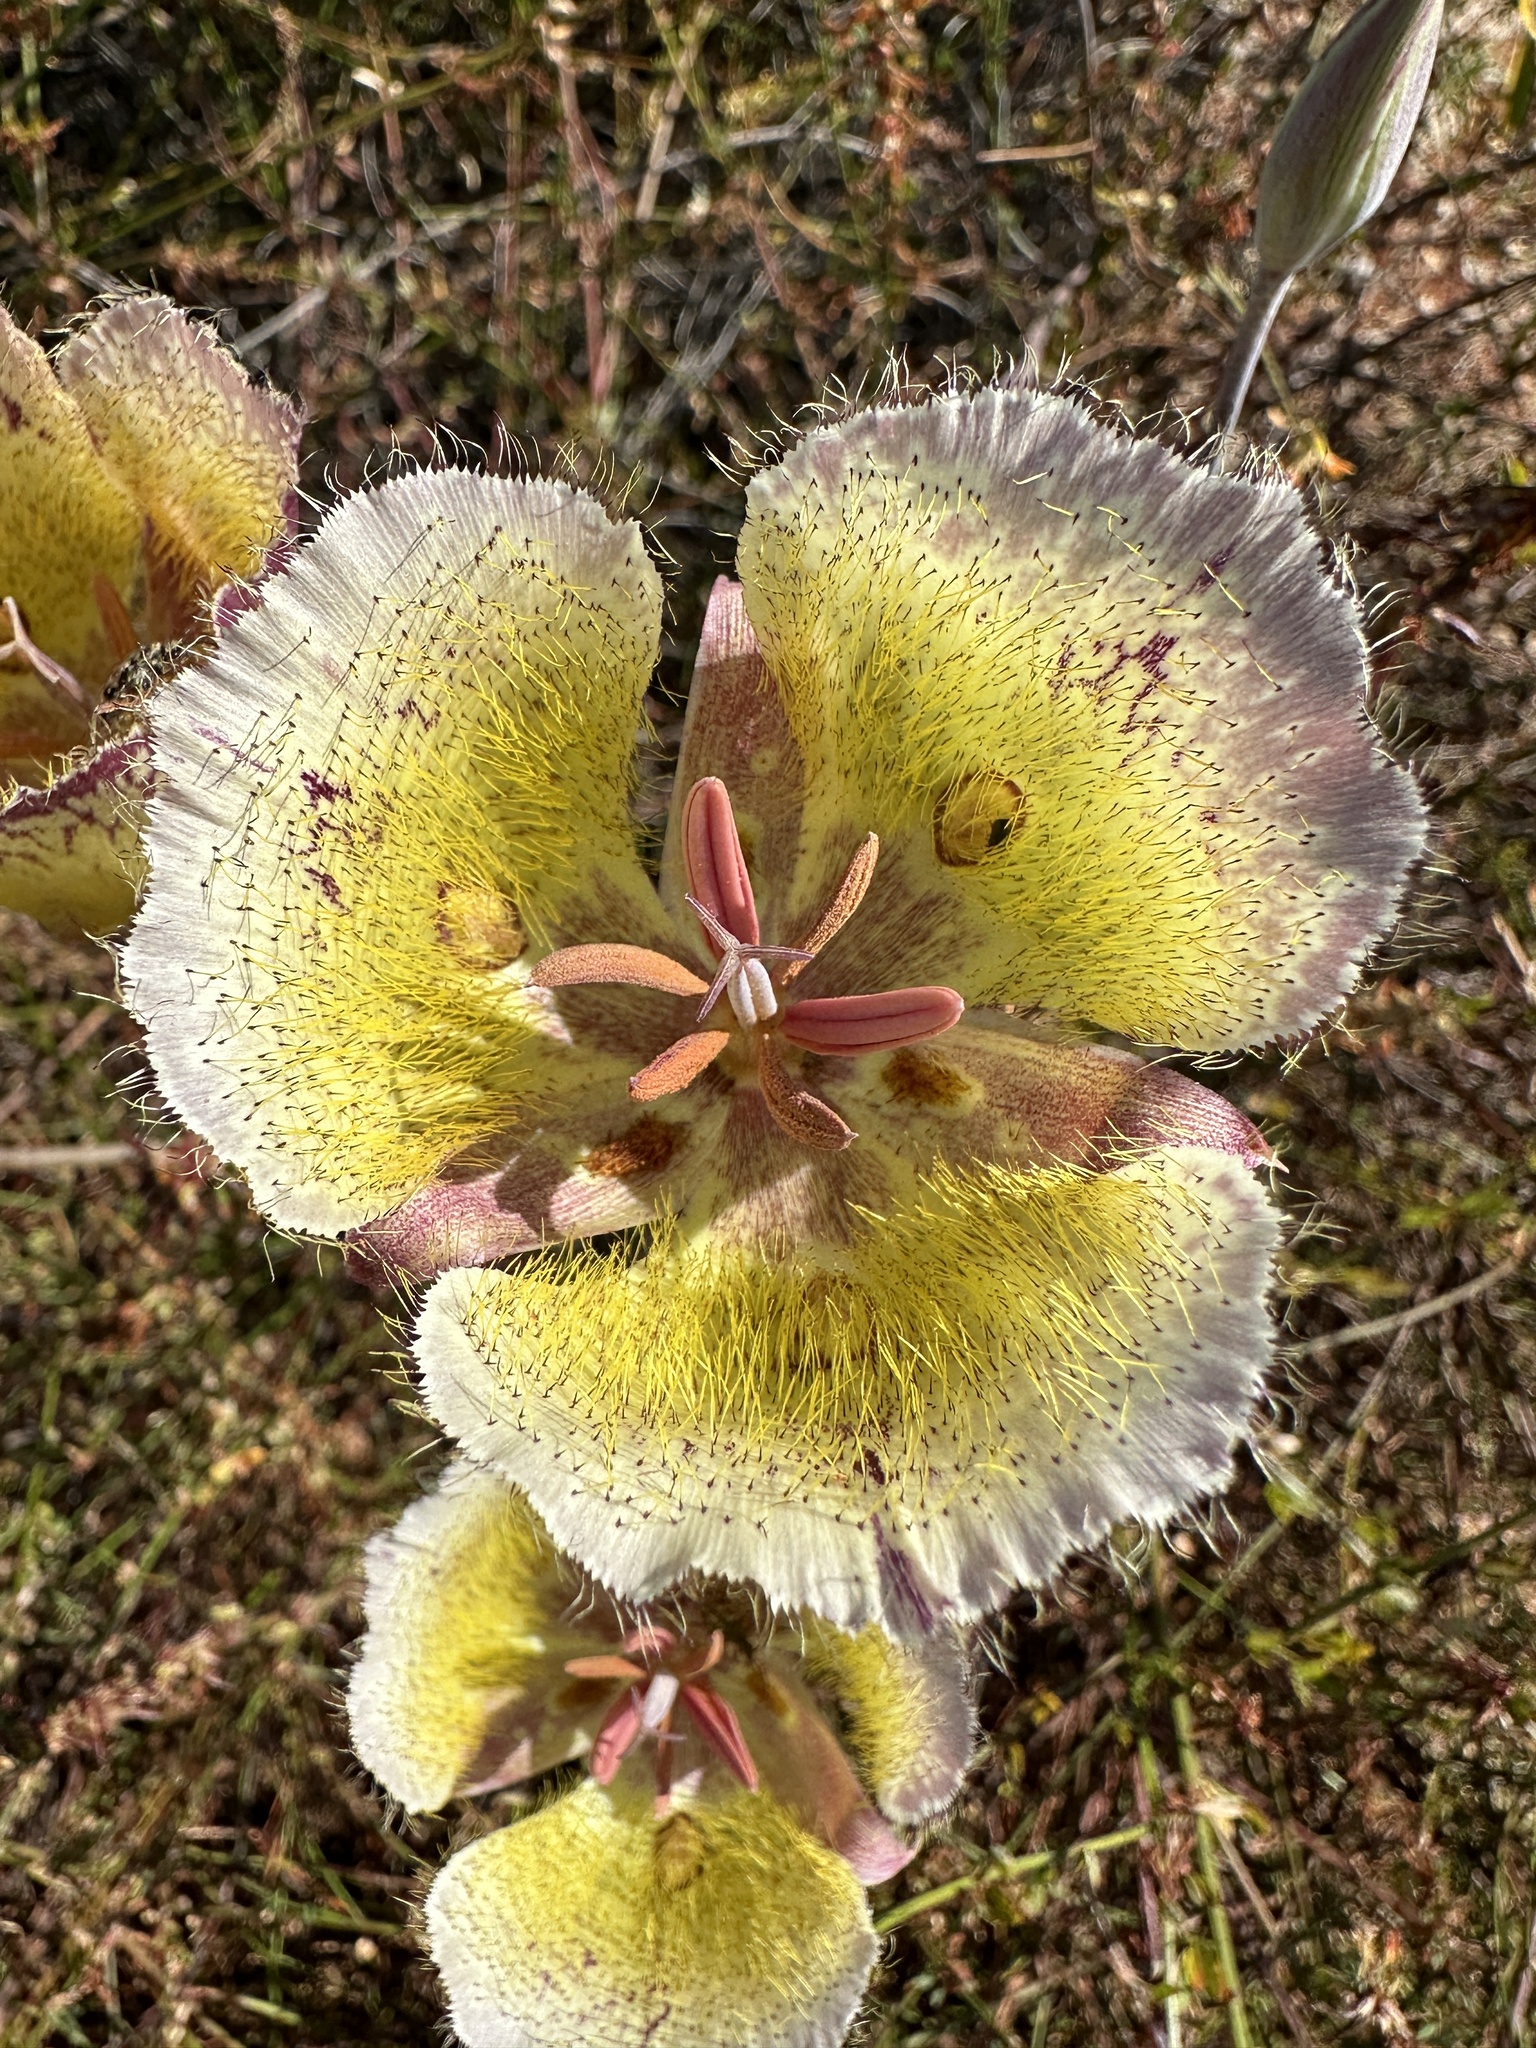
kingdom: Plantae
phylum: Tracheophyta
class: Liliopsida
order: Liliales
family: Liliaceae
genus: Calochortus
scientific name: Calochortus weedii
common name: Weed's mariposa-lily
